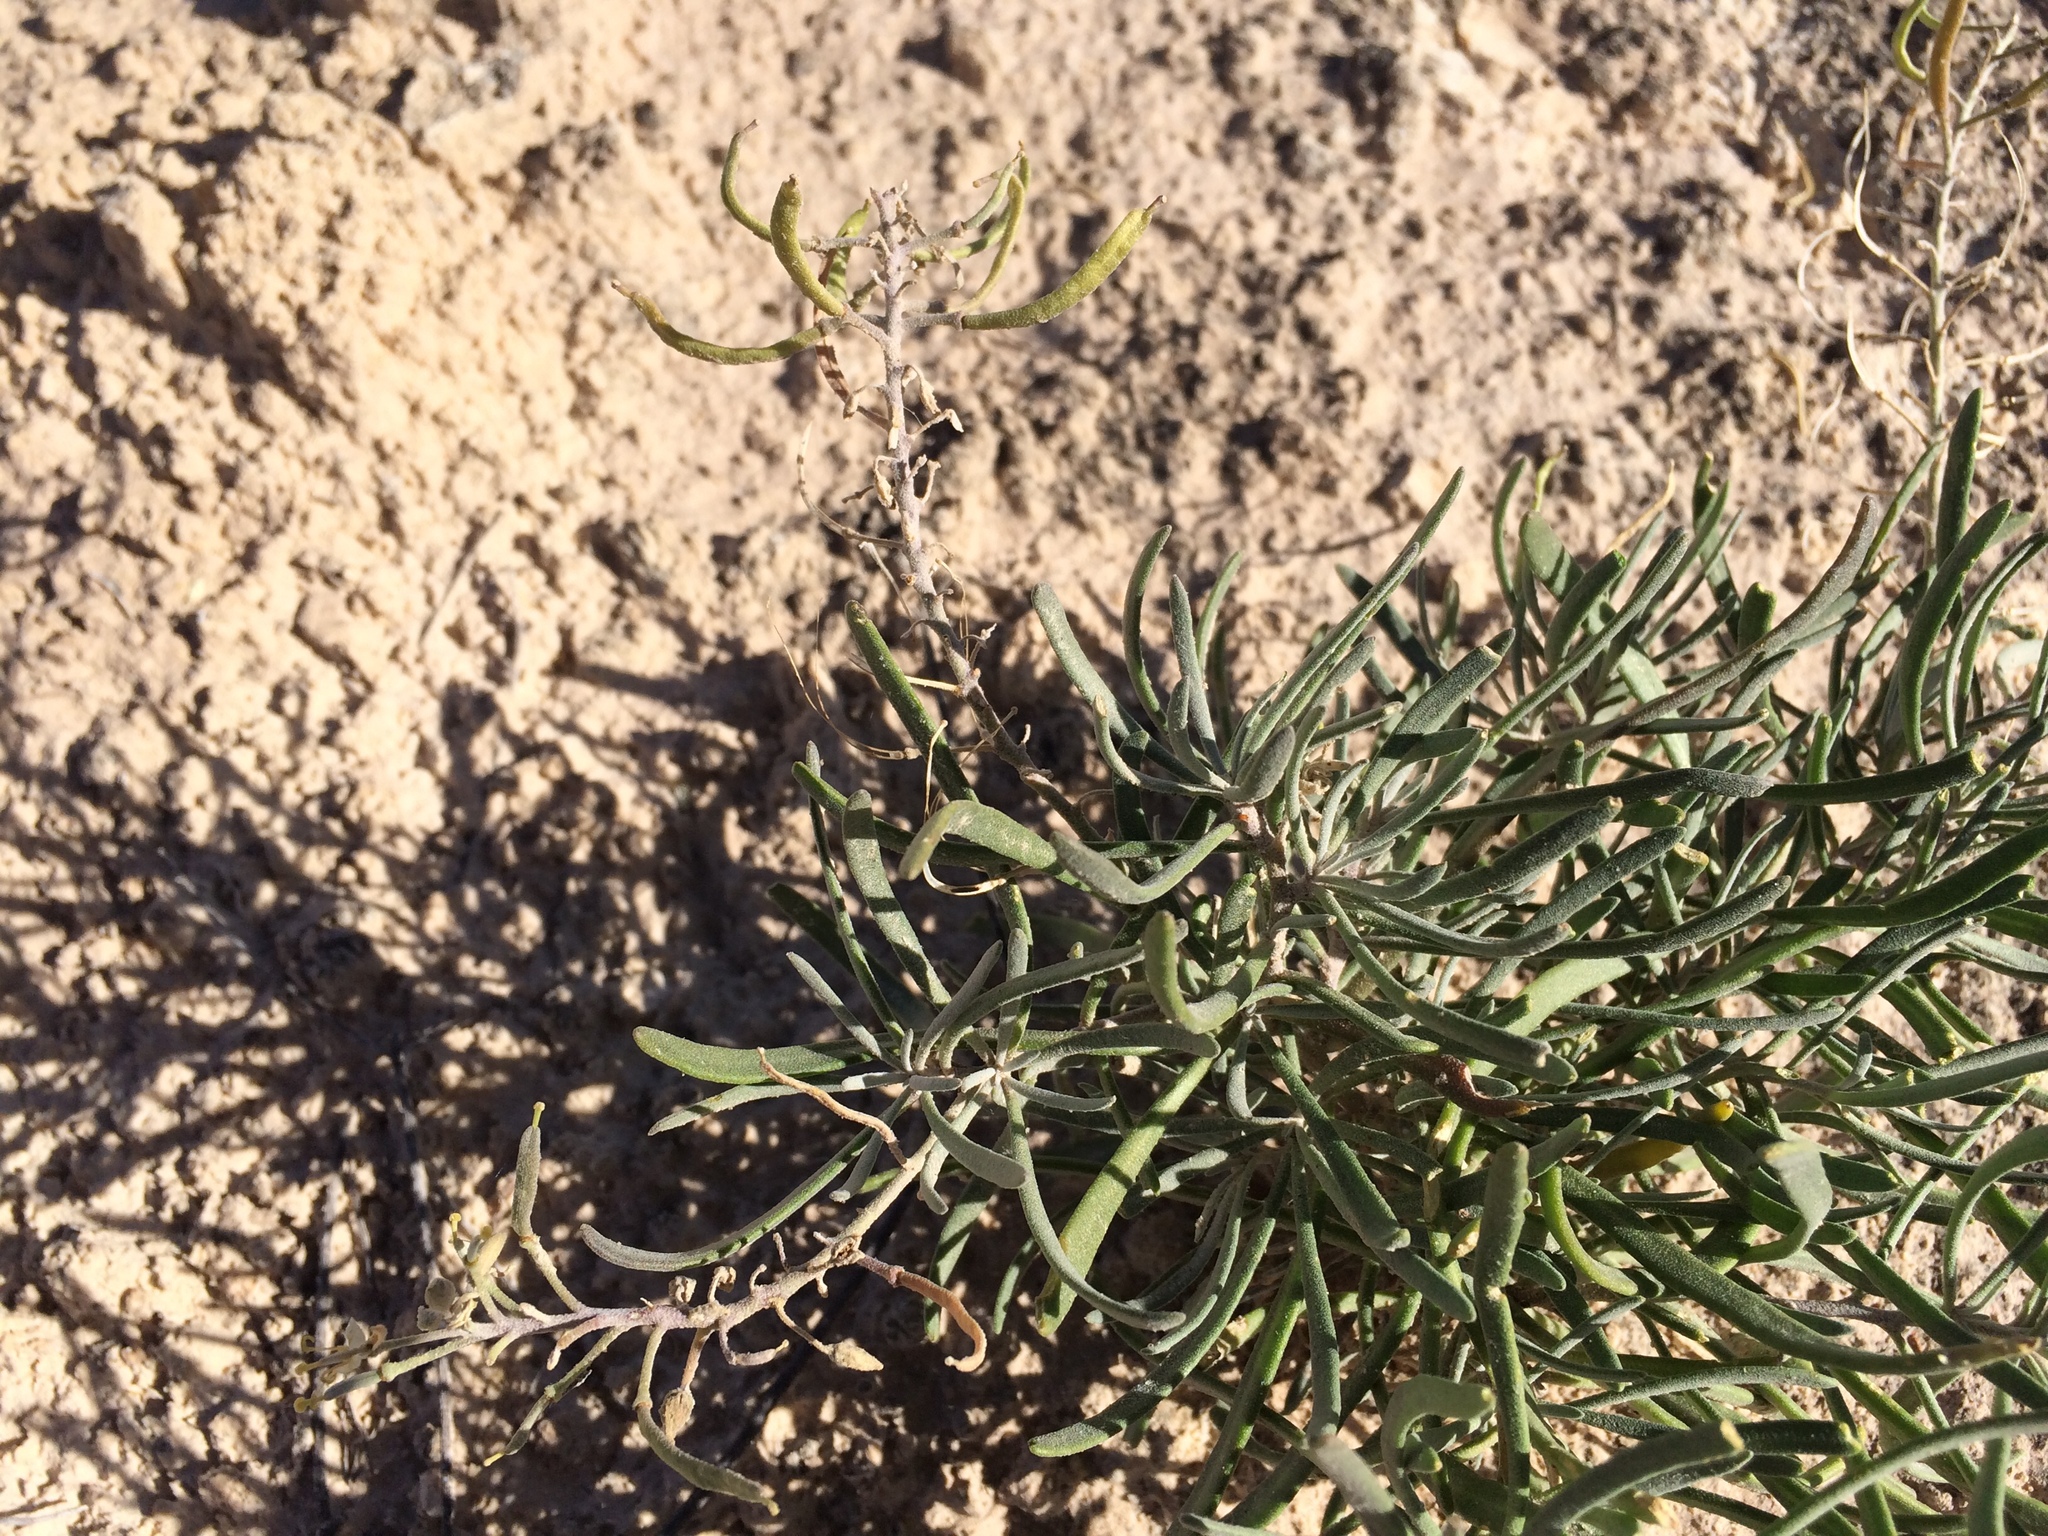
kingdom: Plantae
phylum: Tracheophyta
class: Magnoliopsida
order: Brassicales
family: Brassicaceae
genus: Nerisyrenia
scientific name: Nerisyrenia linearifolia
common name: White sands fan mustard
